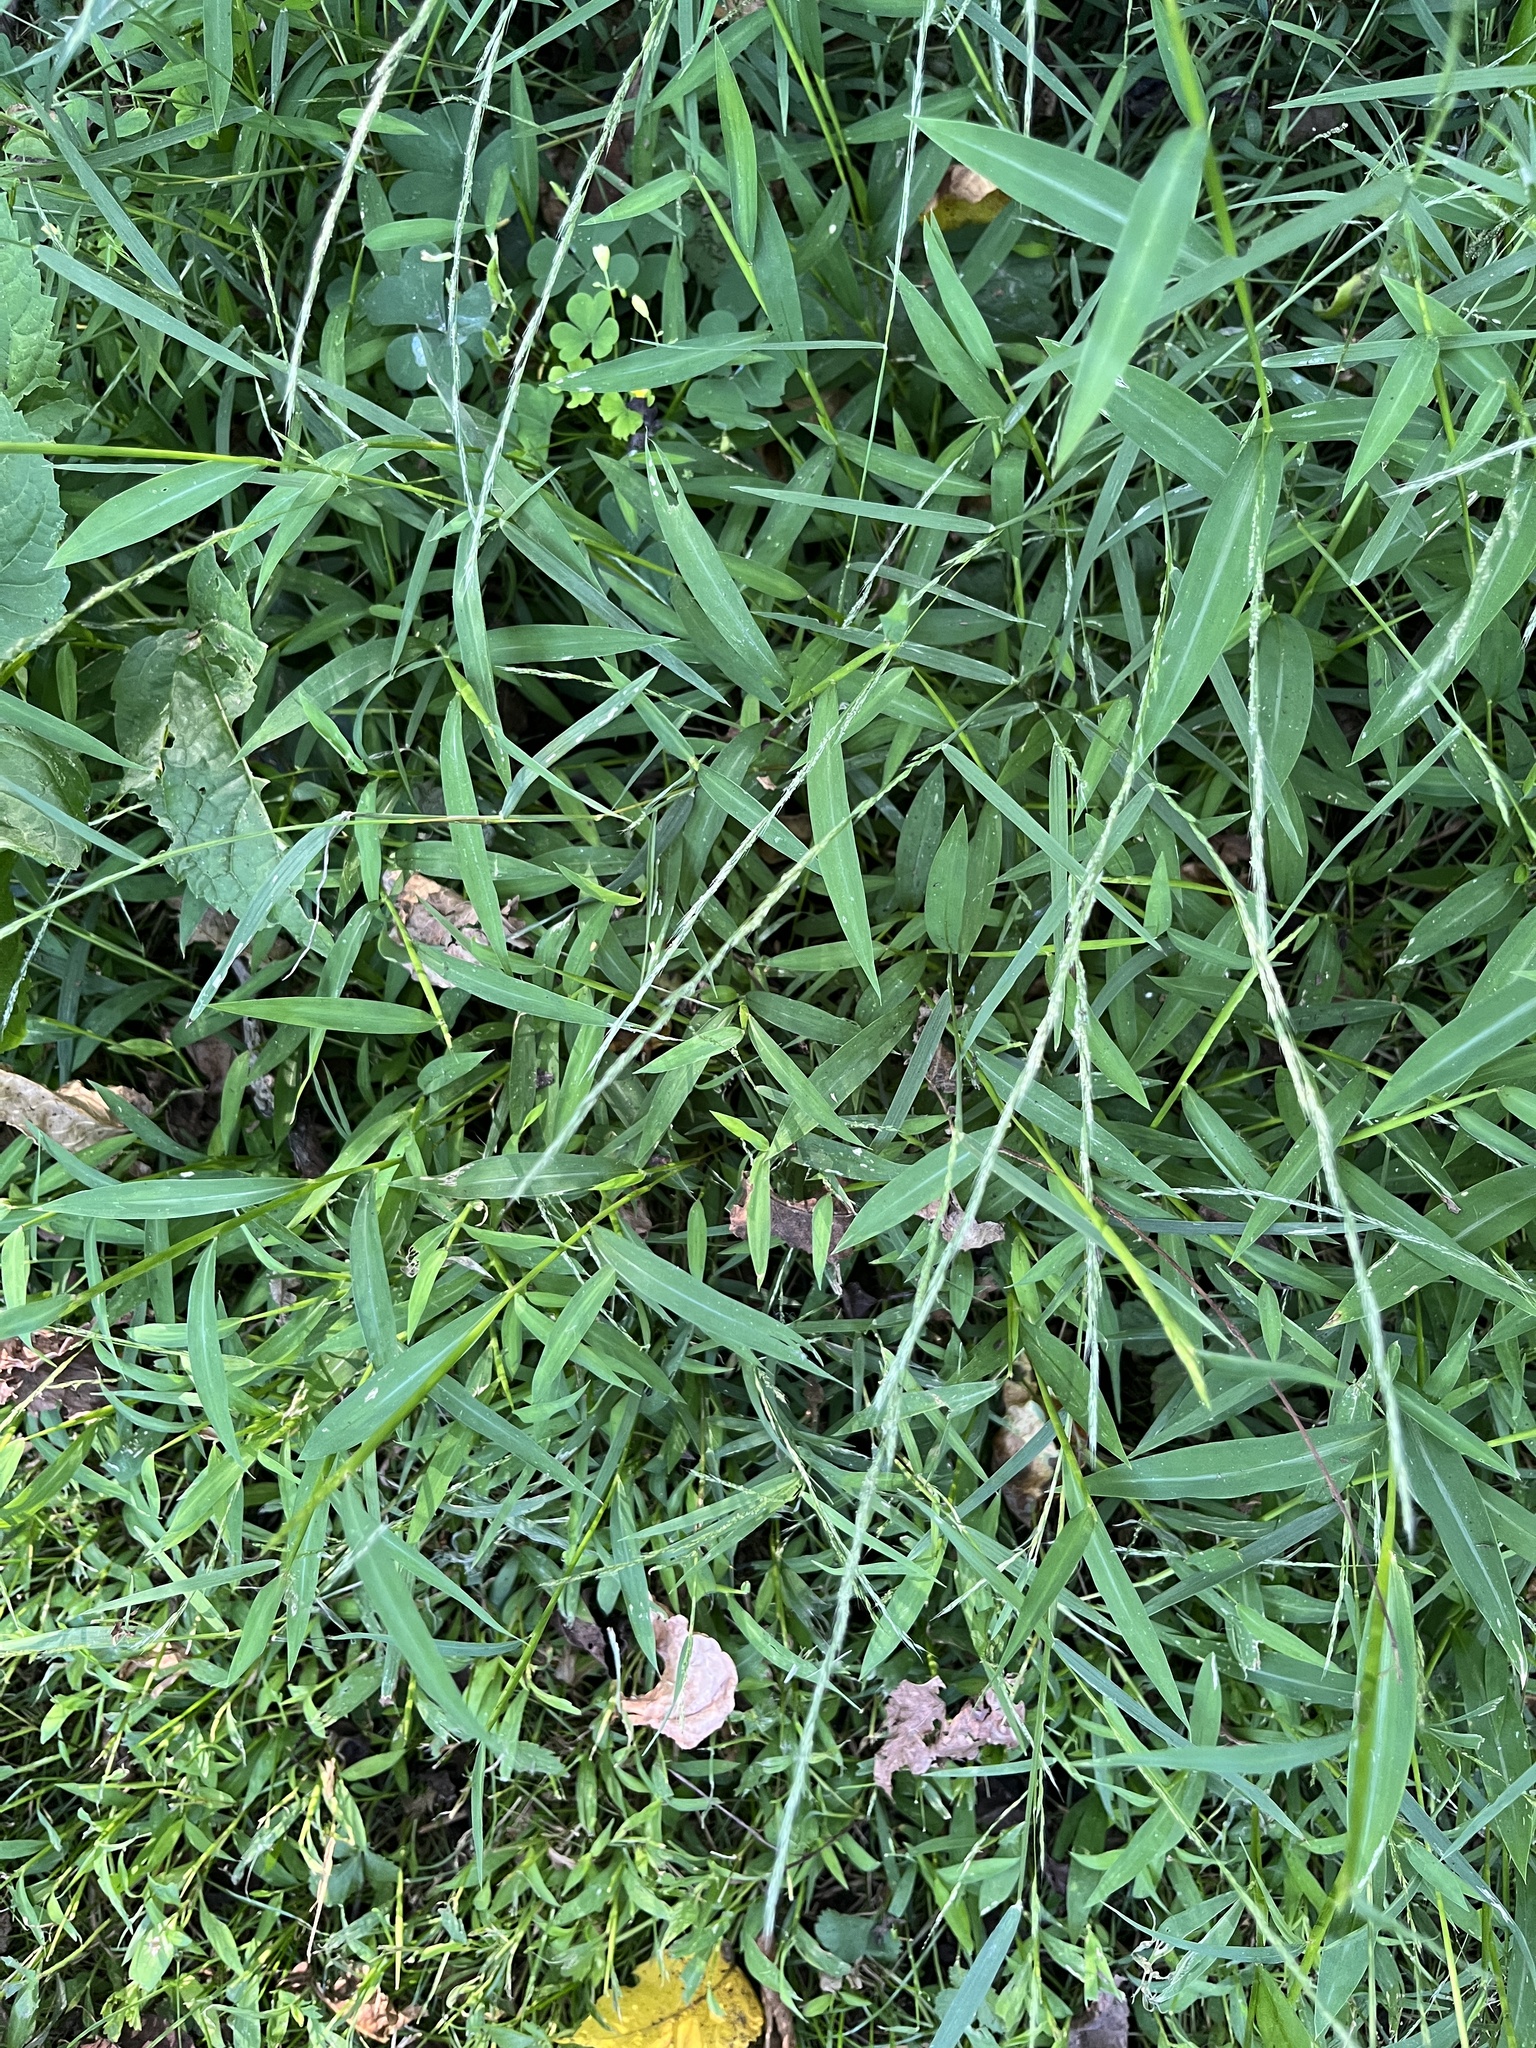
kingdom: Plantae
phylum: Tracheophyta
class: Liliopsida
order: Poales
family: Poaceae
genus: Muhlenbergia
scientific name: Muhlenbergia schreberi
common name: Nimblewill
